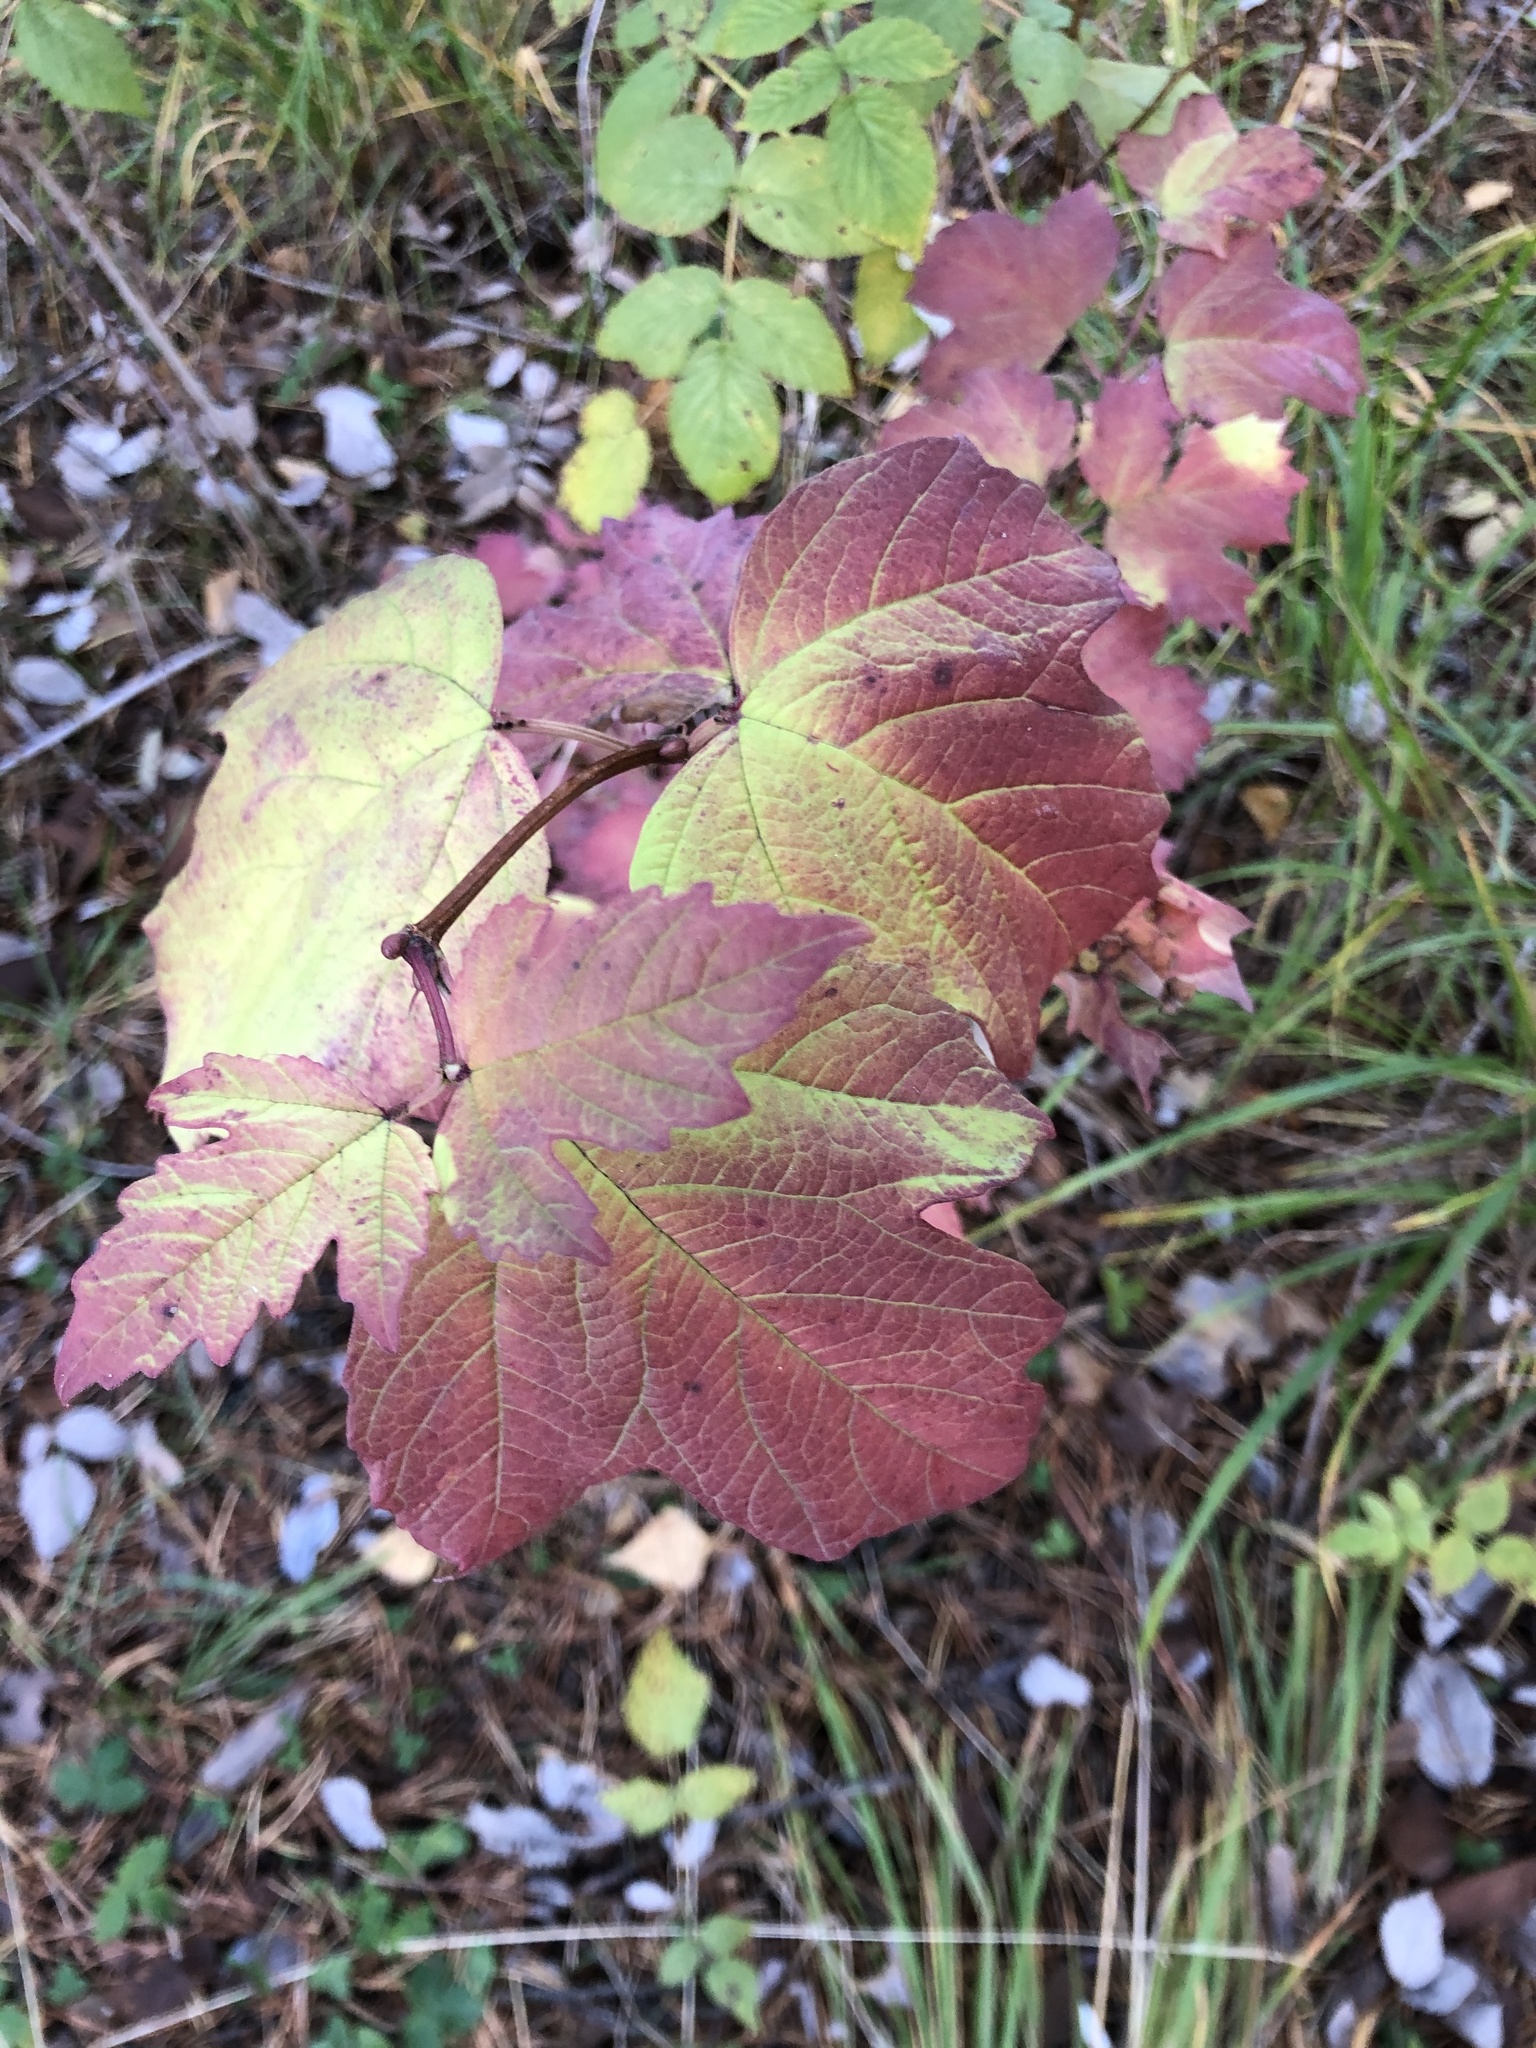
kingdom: Plantae
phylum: Tracheophyta
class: Magnoliopsida
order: Dipsacales
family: Viburnaceae
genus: Viburnum
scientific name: Viburnum opulus
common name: Guelder-rose
